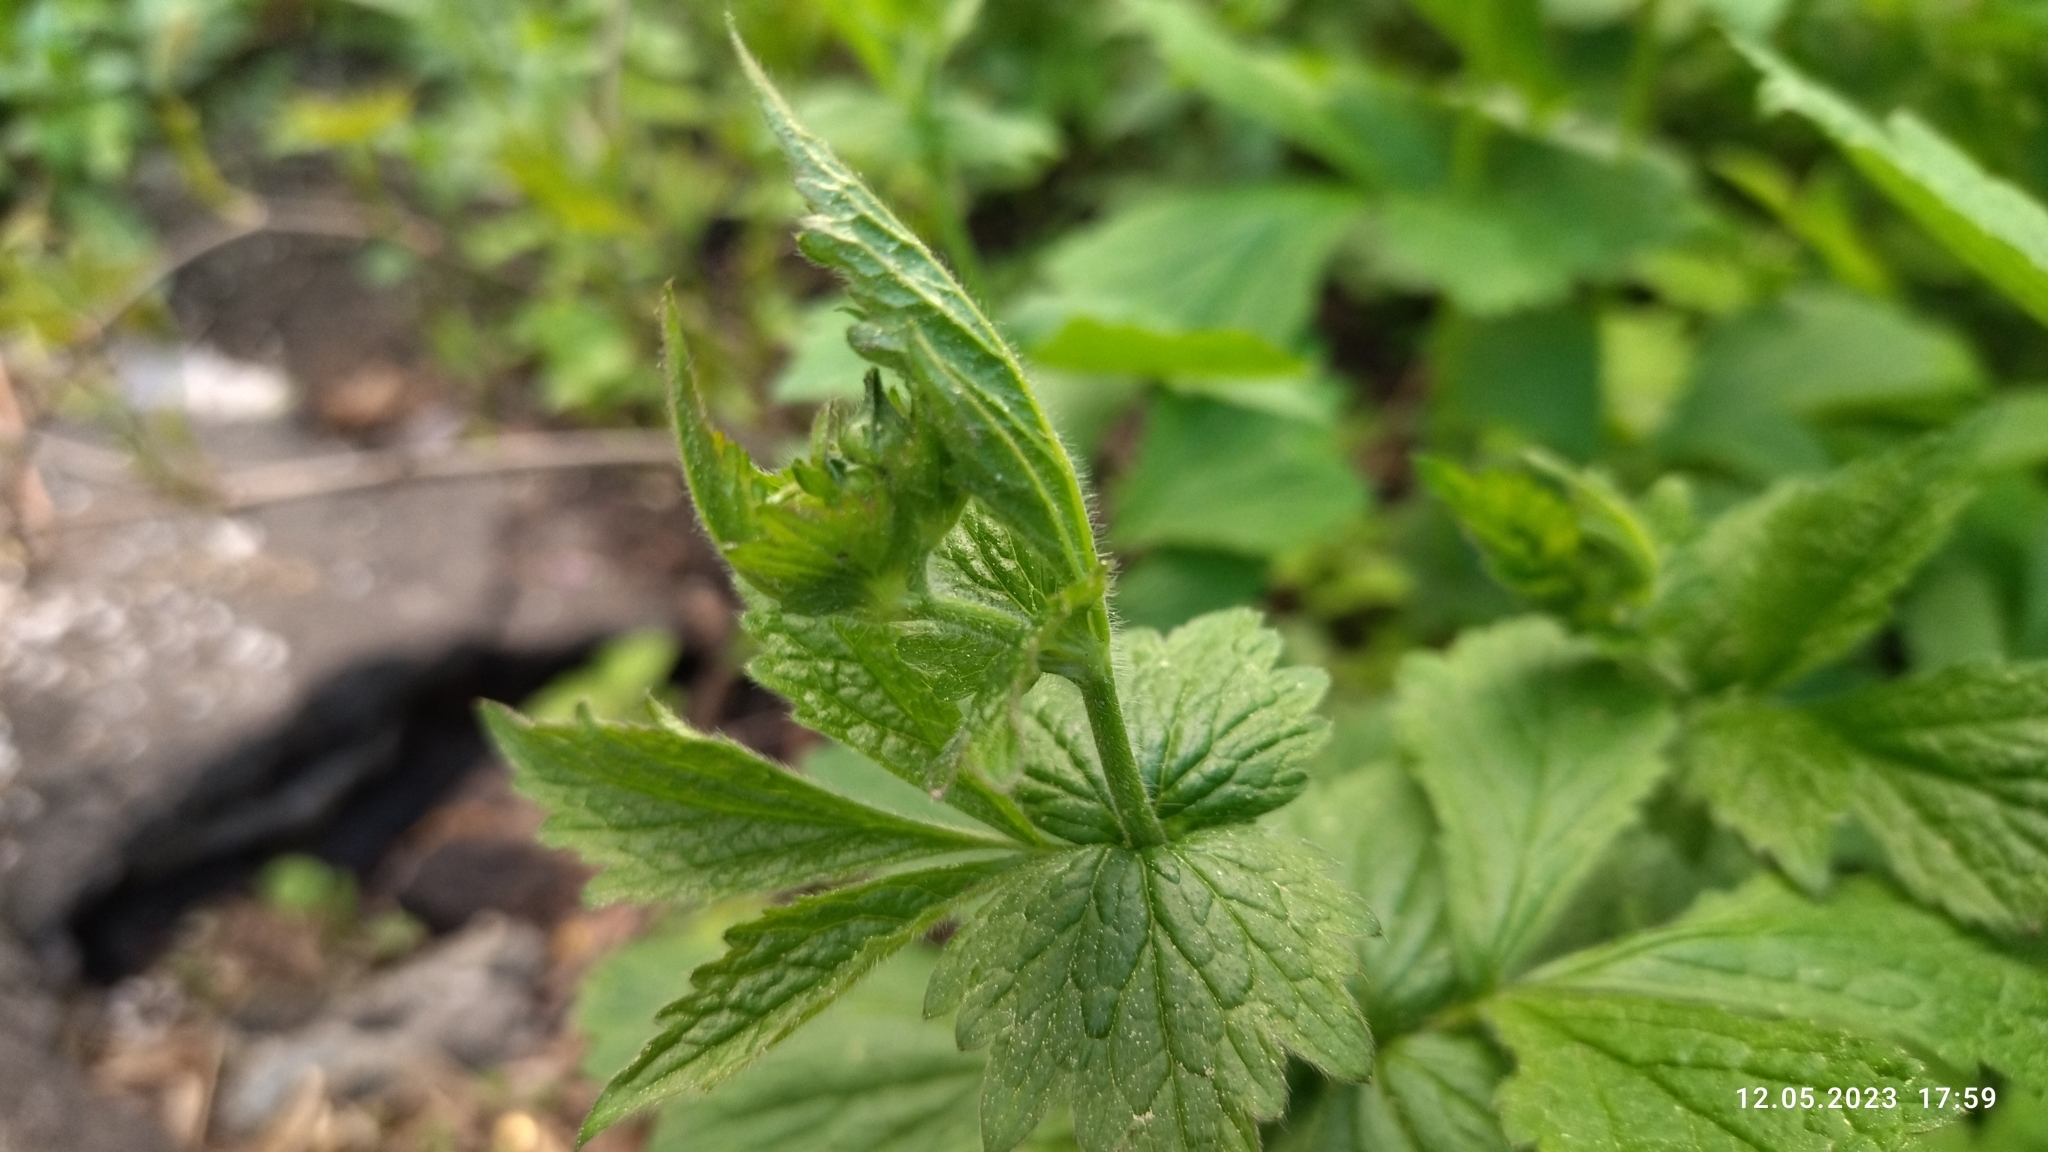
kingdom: Plantae
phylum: Tracheophyta
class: Magnoliopsida
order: Rosales
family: Rosaceae
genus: Geum
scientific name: Geum urbanum
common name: Wood avens
